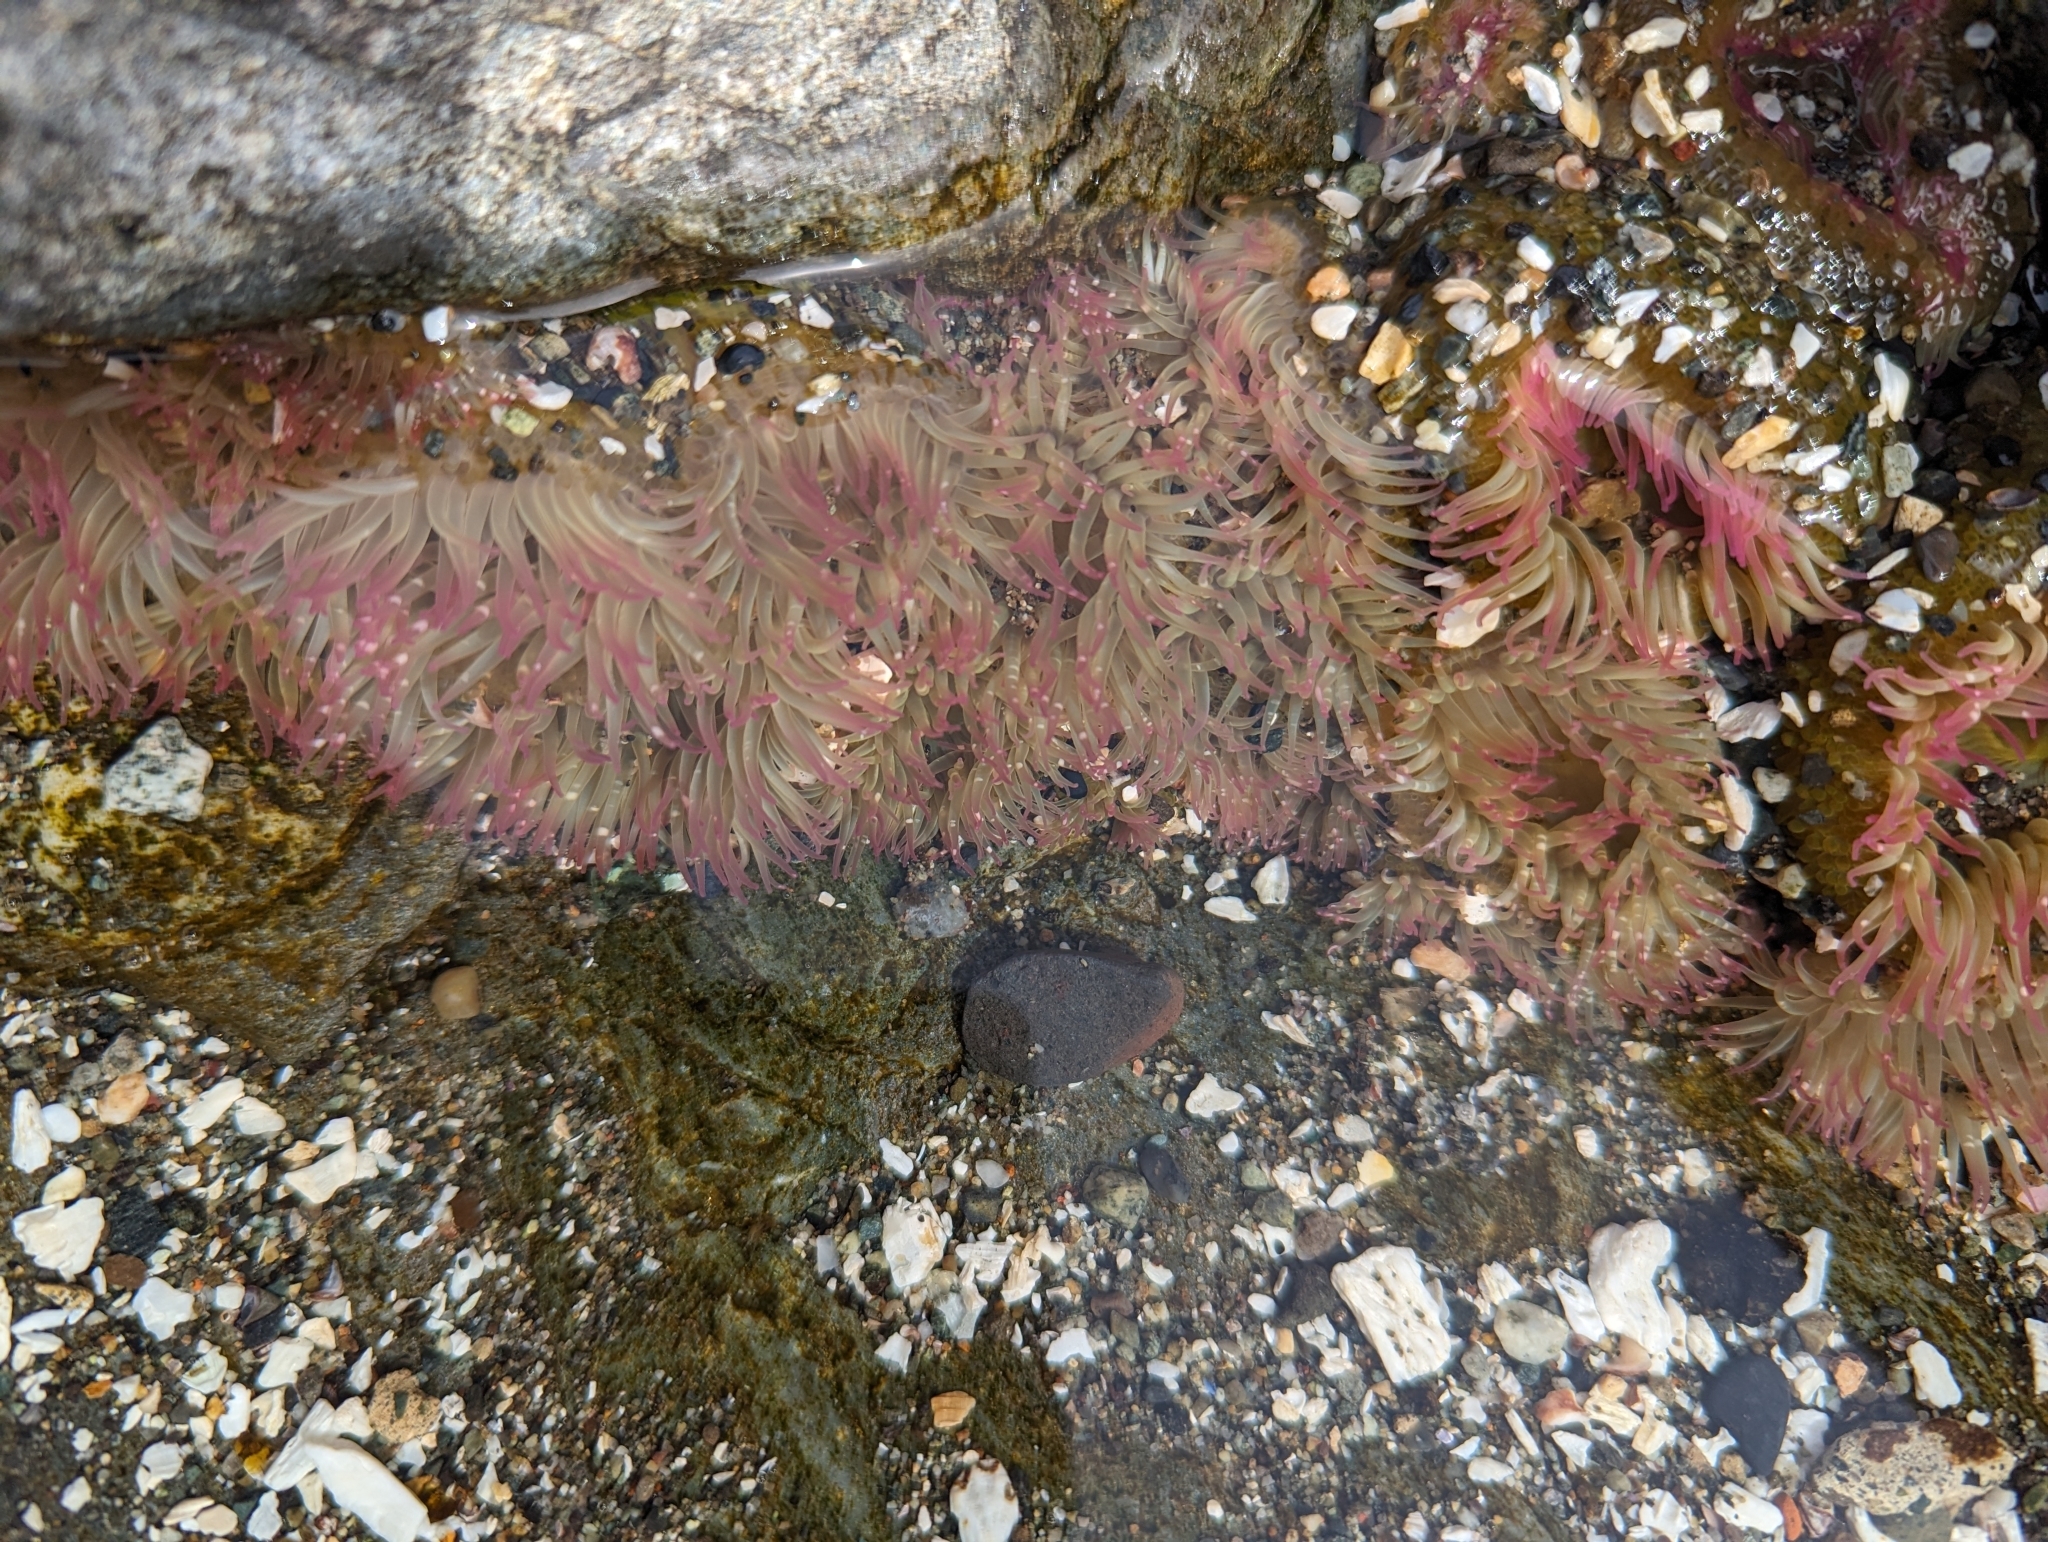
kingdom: Animalia
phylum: Cnidaria
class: Anthozoa
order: Actiniaria
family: Actiniidae
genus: Anthopleura
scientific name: Anthopleura elegantissima
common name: Clonal anemone
